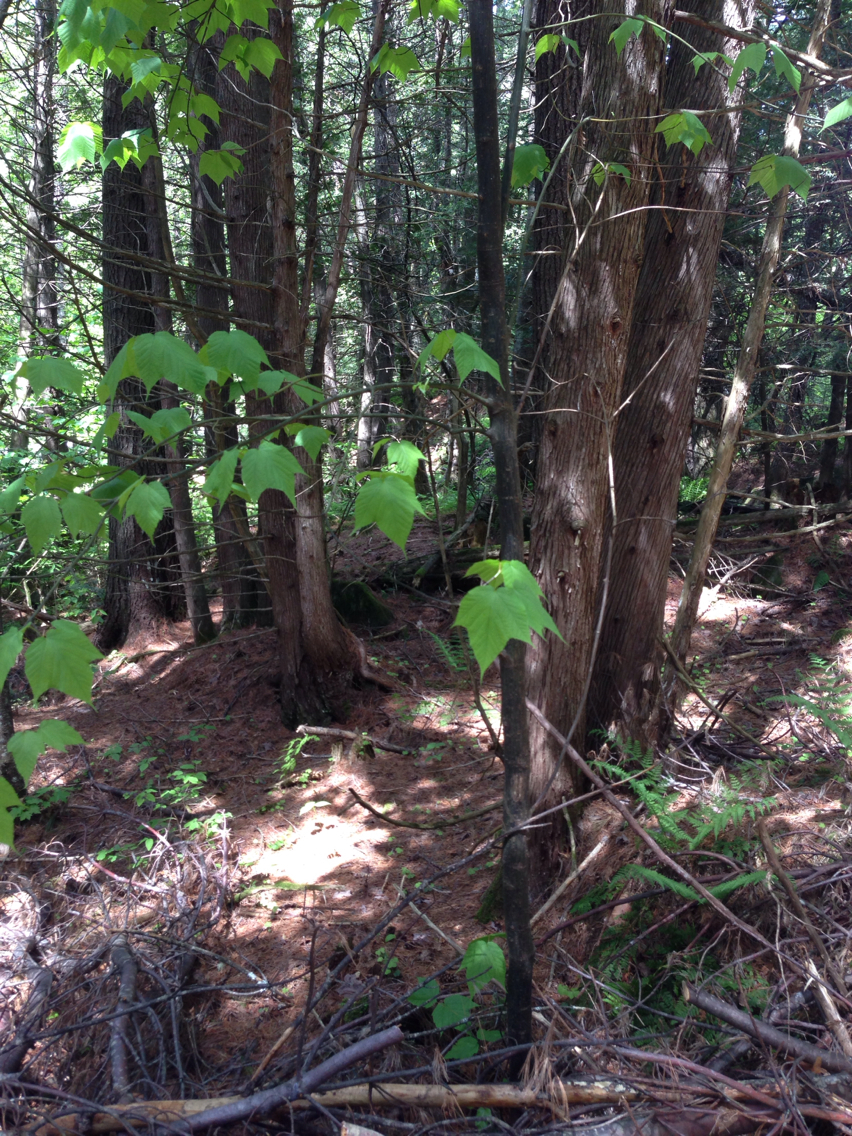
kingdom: Plantae
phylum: Tracheophyta
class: Magnoliopsida
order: Sapindales
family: Sapindaceae
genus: Acer
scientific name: Acer pensylvanicum
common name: Moosewood
